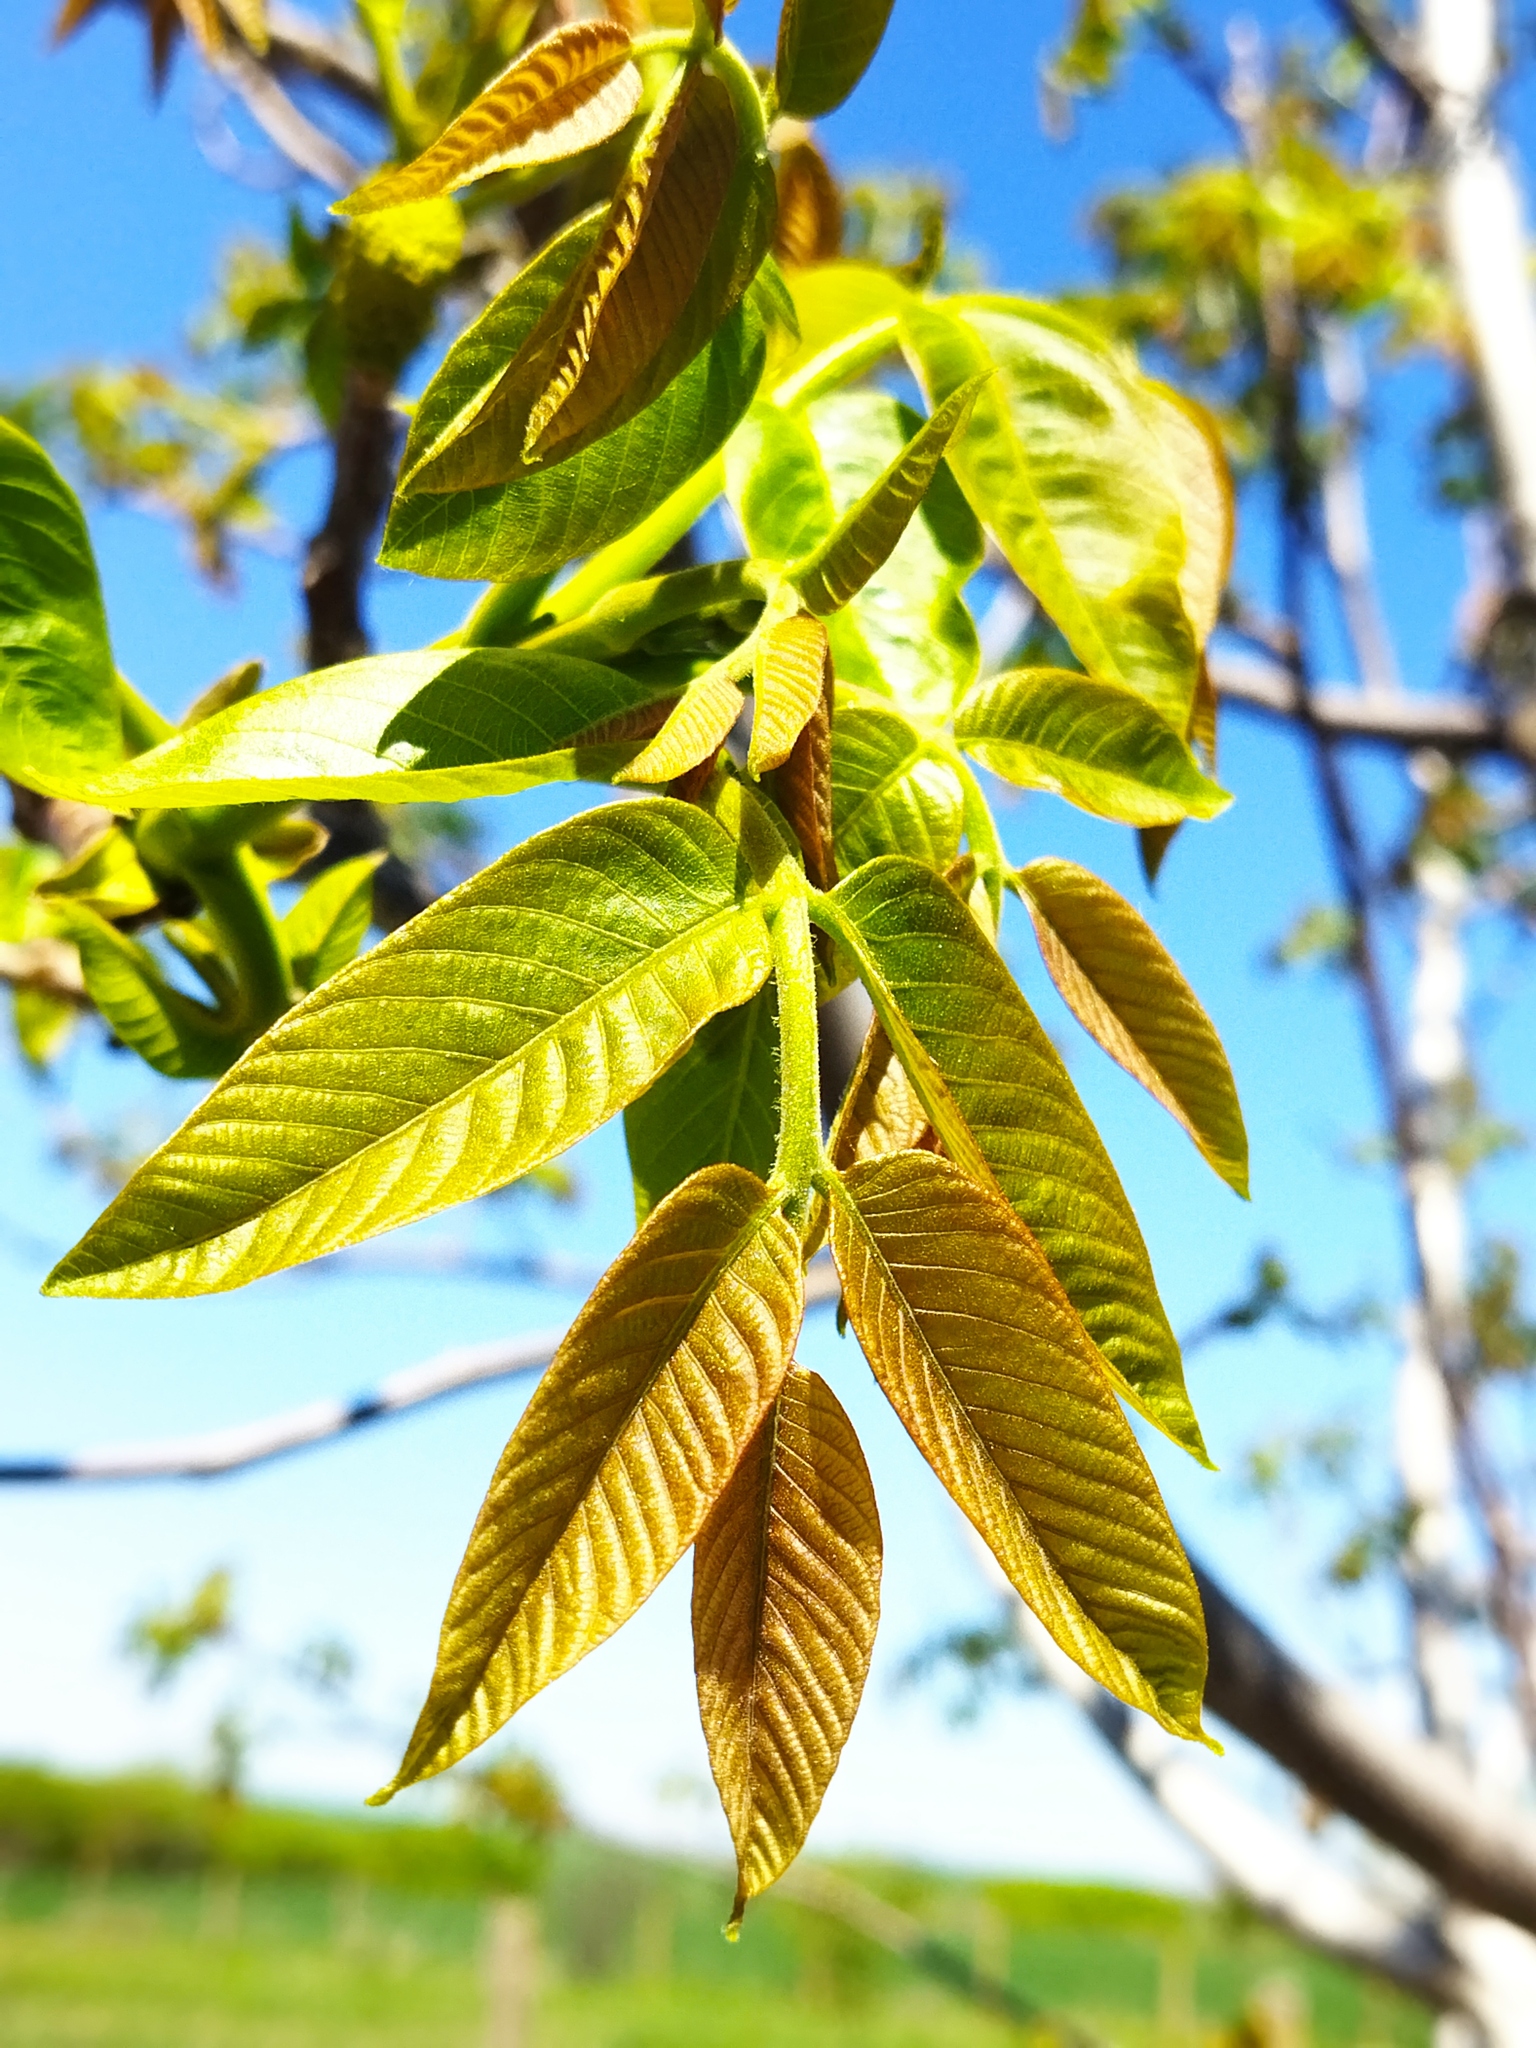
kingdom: Plantae
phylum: Tracheophyta
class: Magnoliopsida
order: Fagales
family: Juglandaceae
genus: Juglans
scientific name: Juglans regia
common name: Walnut
